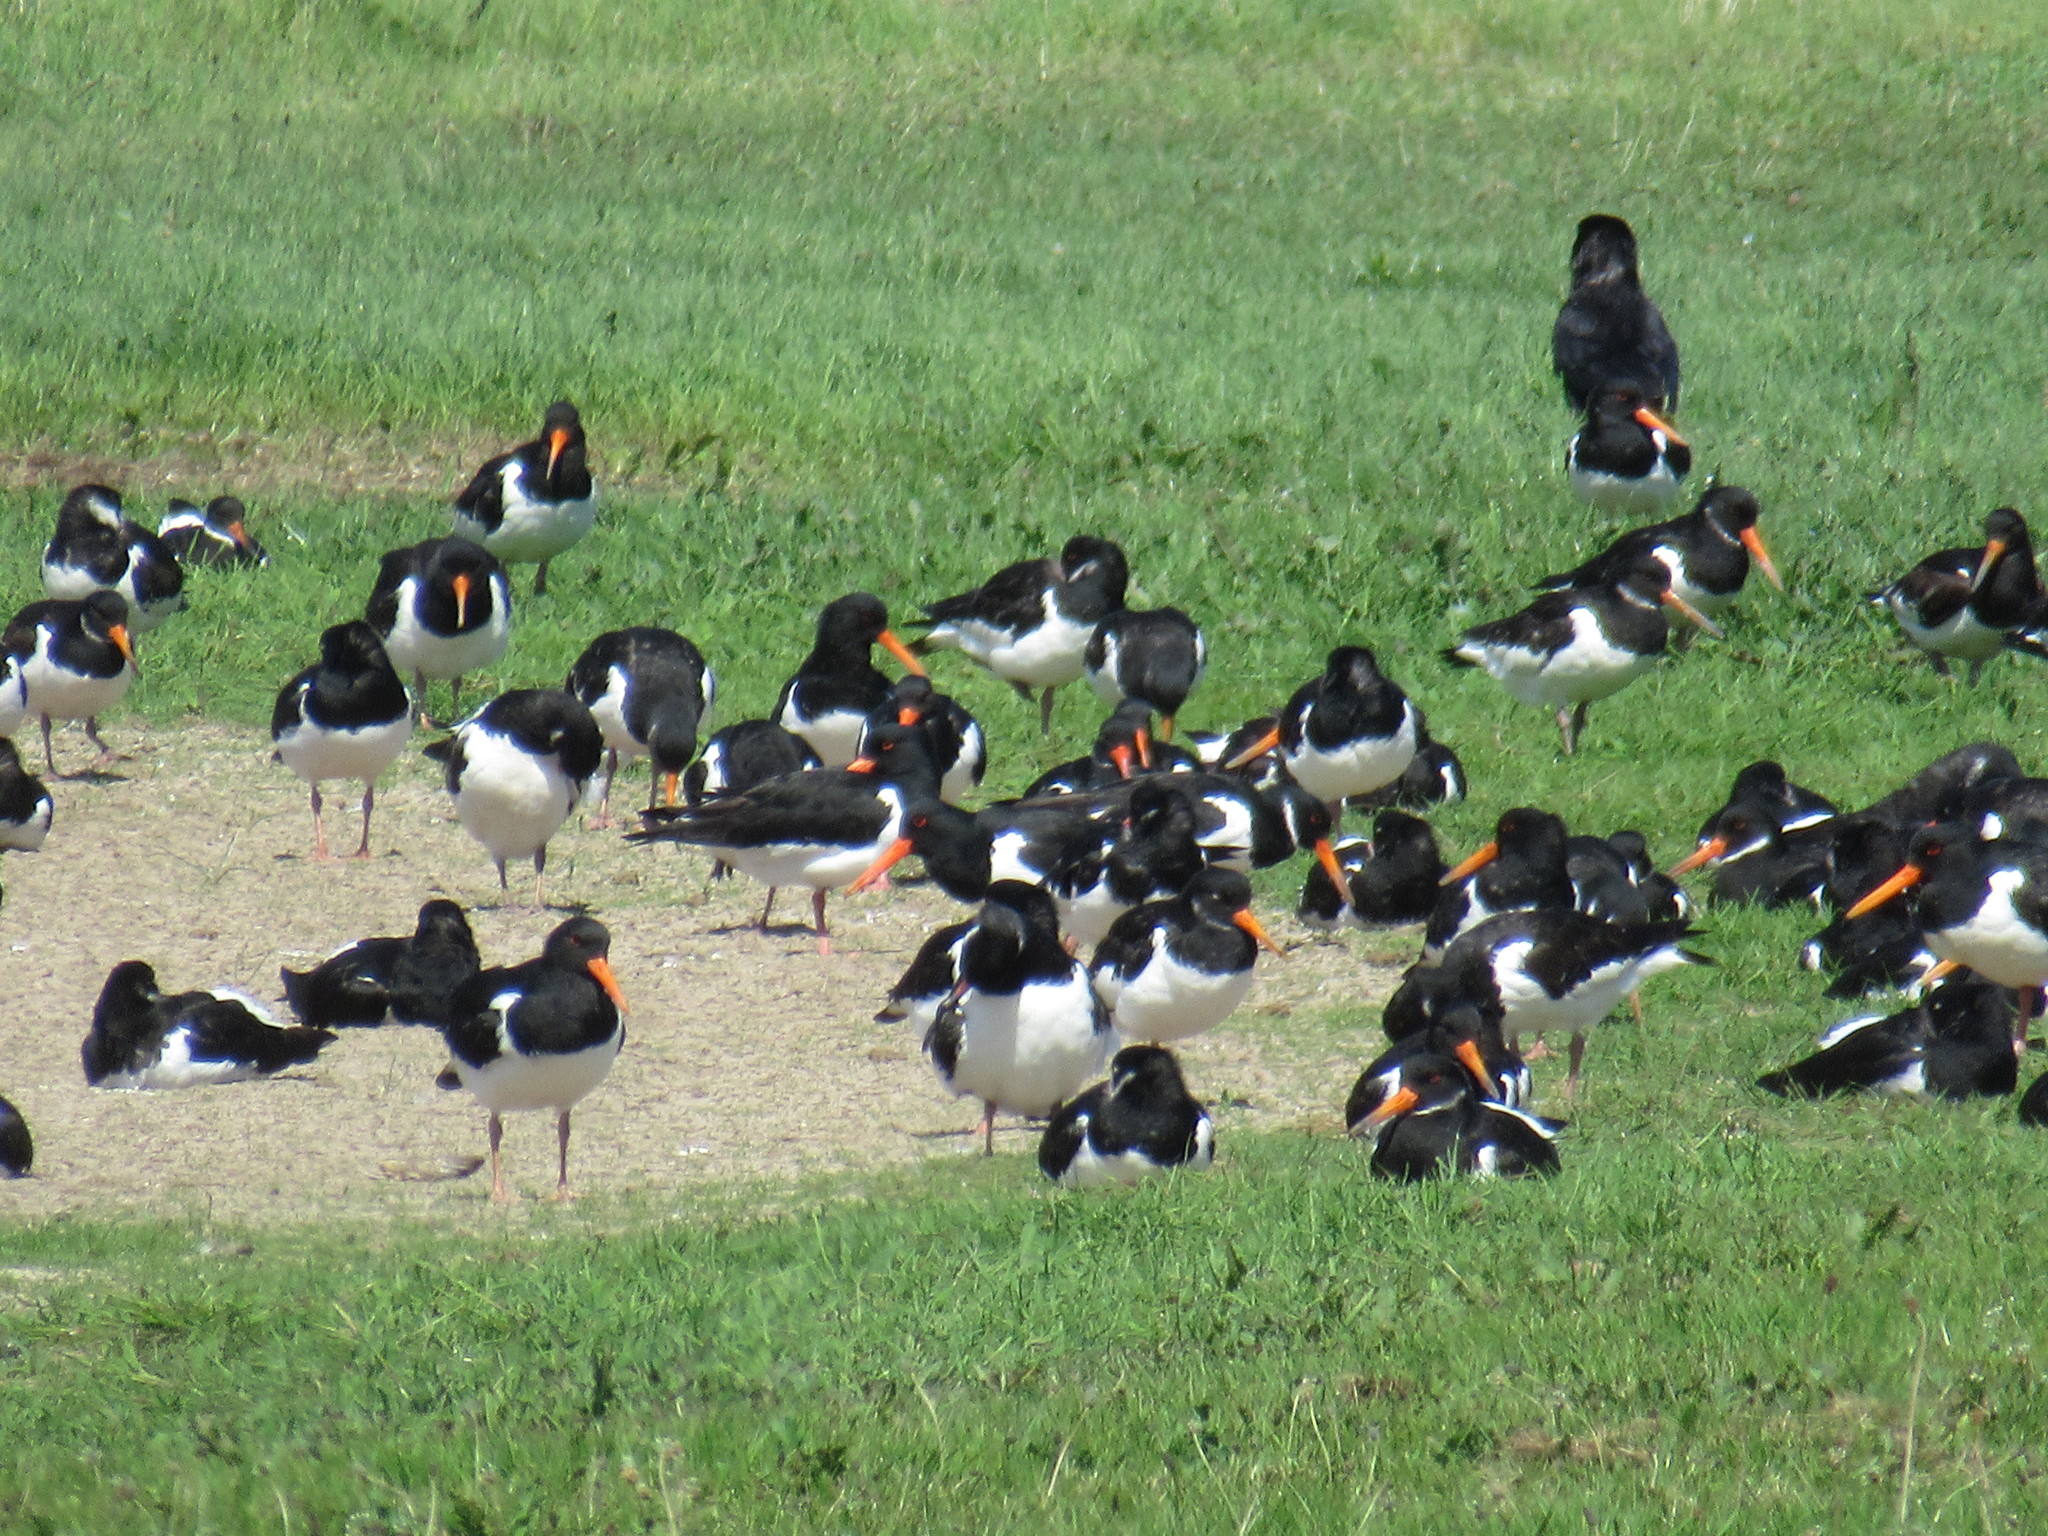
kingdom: Animalia
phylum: Chordata
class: Aves
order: Charadriiformes
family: Haematopodidae
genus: Haematopus
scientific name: Haematopus ostralegus
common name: Eurasian oystercatcher
